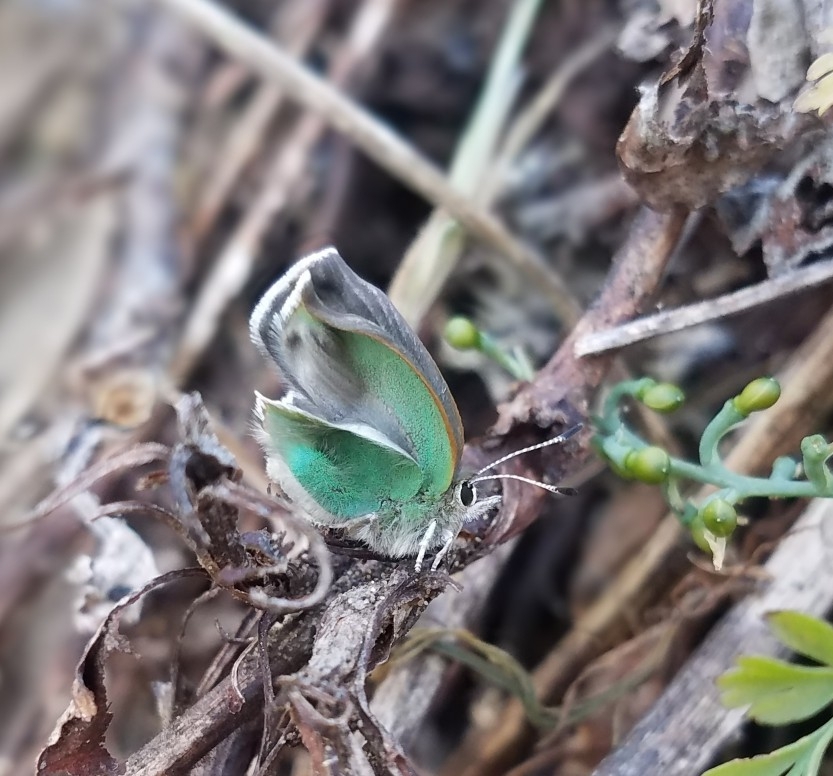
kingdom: Animalia
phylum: Arthropoda
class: Insecta
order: Lepidoptera
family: Lycaenidae
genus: Callophrys
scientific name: Callophrys viridis
